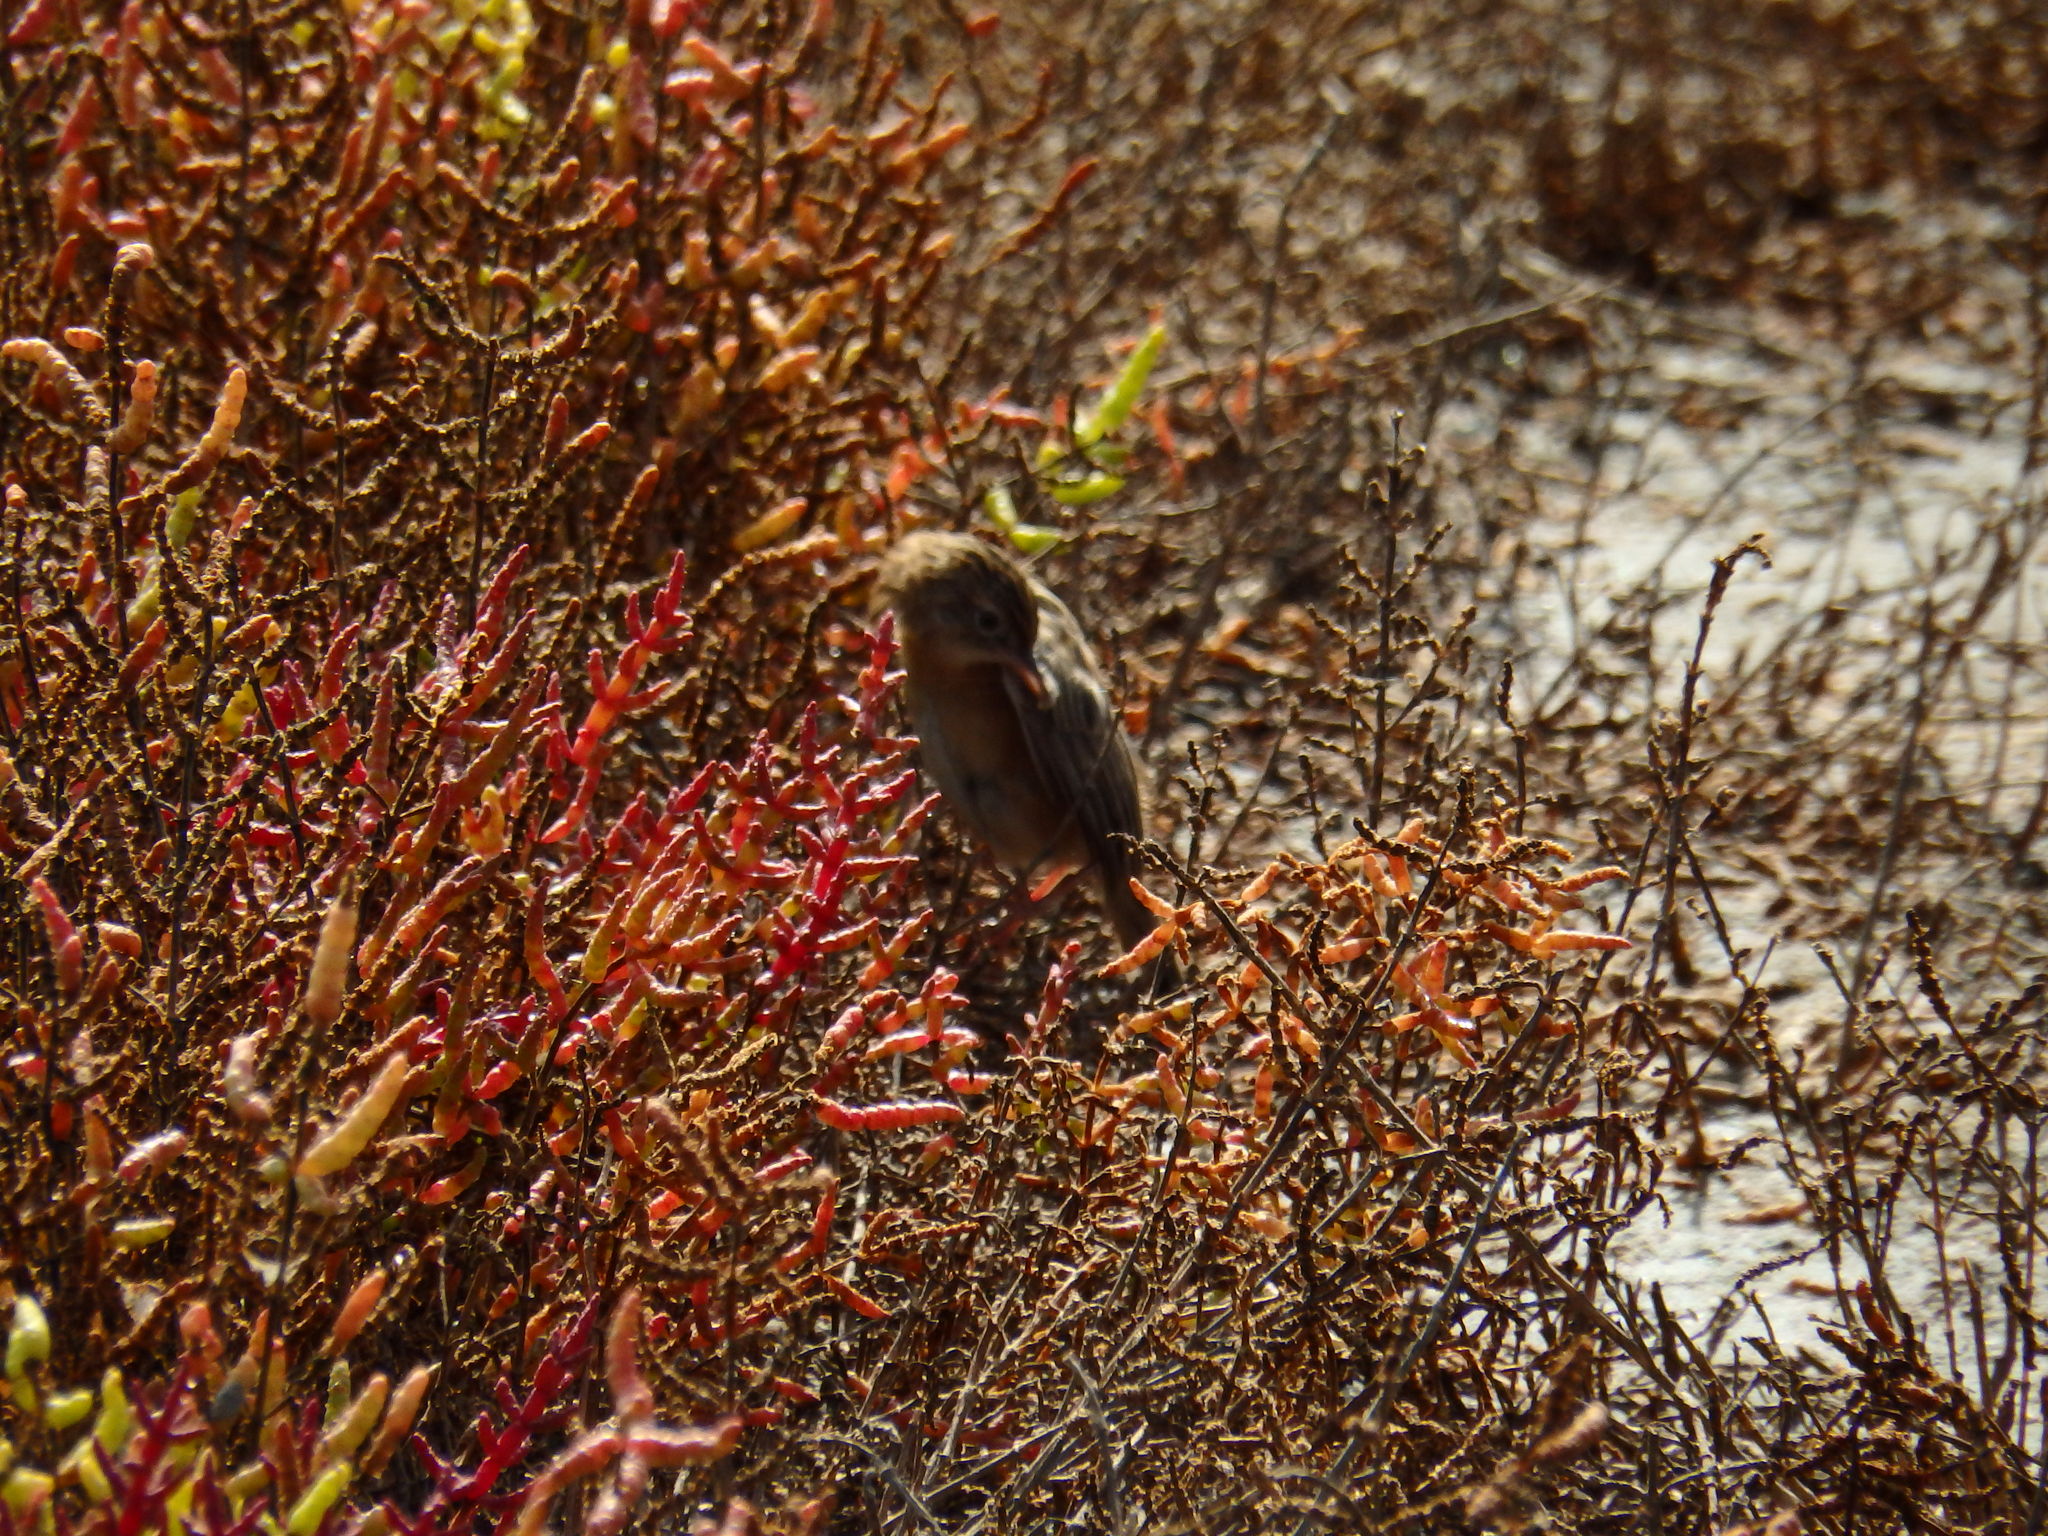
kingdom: Animalia
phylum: Chordata
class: Aves
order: Passeriformes
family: Cisticolidae
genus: Cisticola
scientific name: Cisticola juncidis
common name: Zitting cisticola
